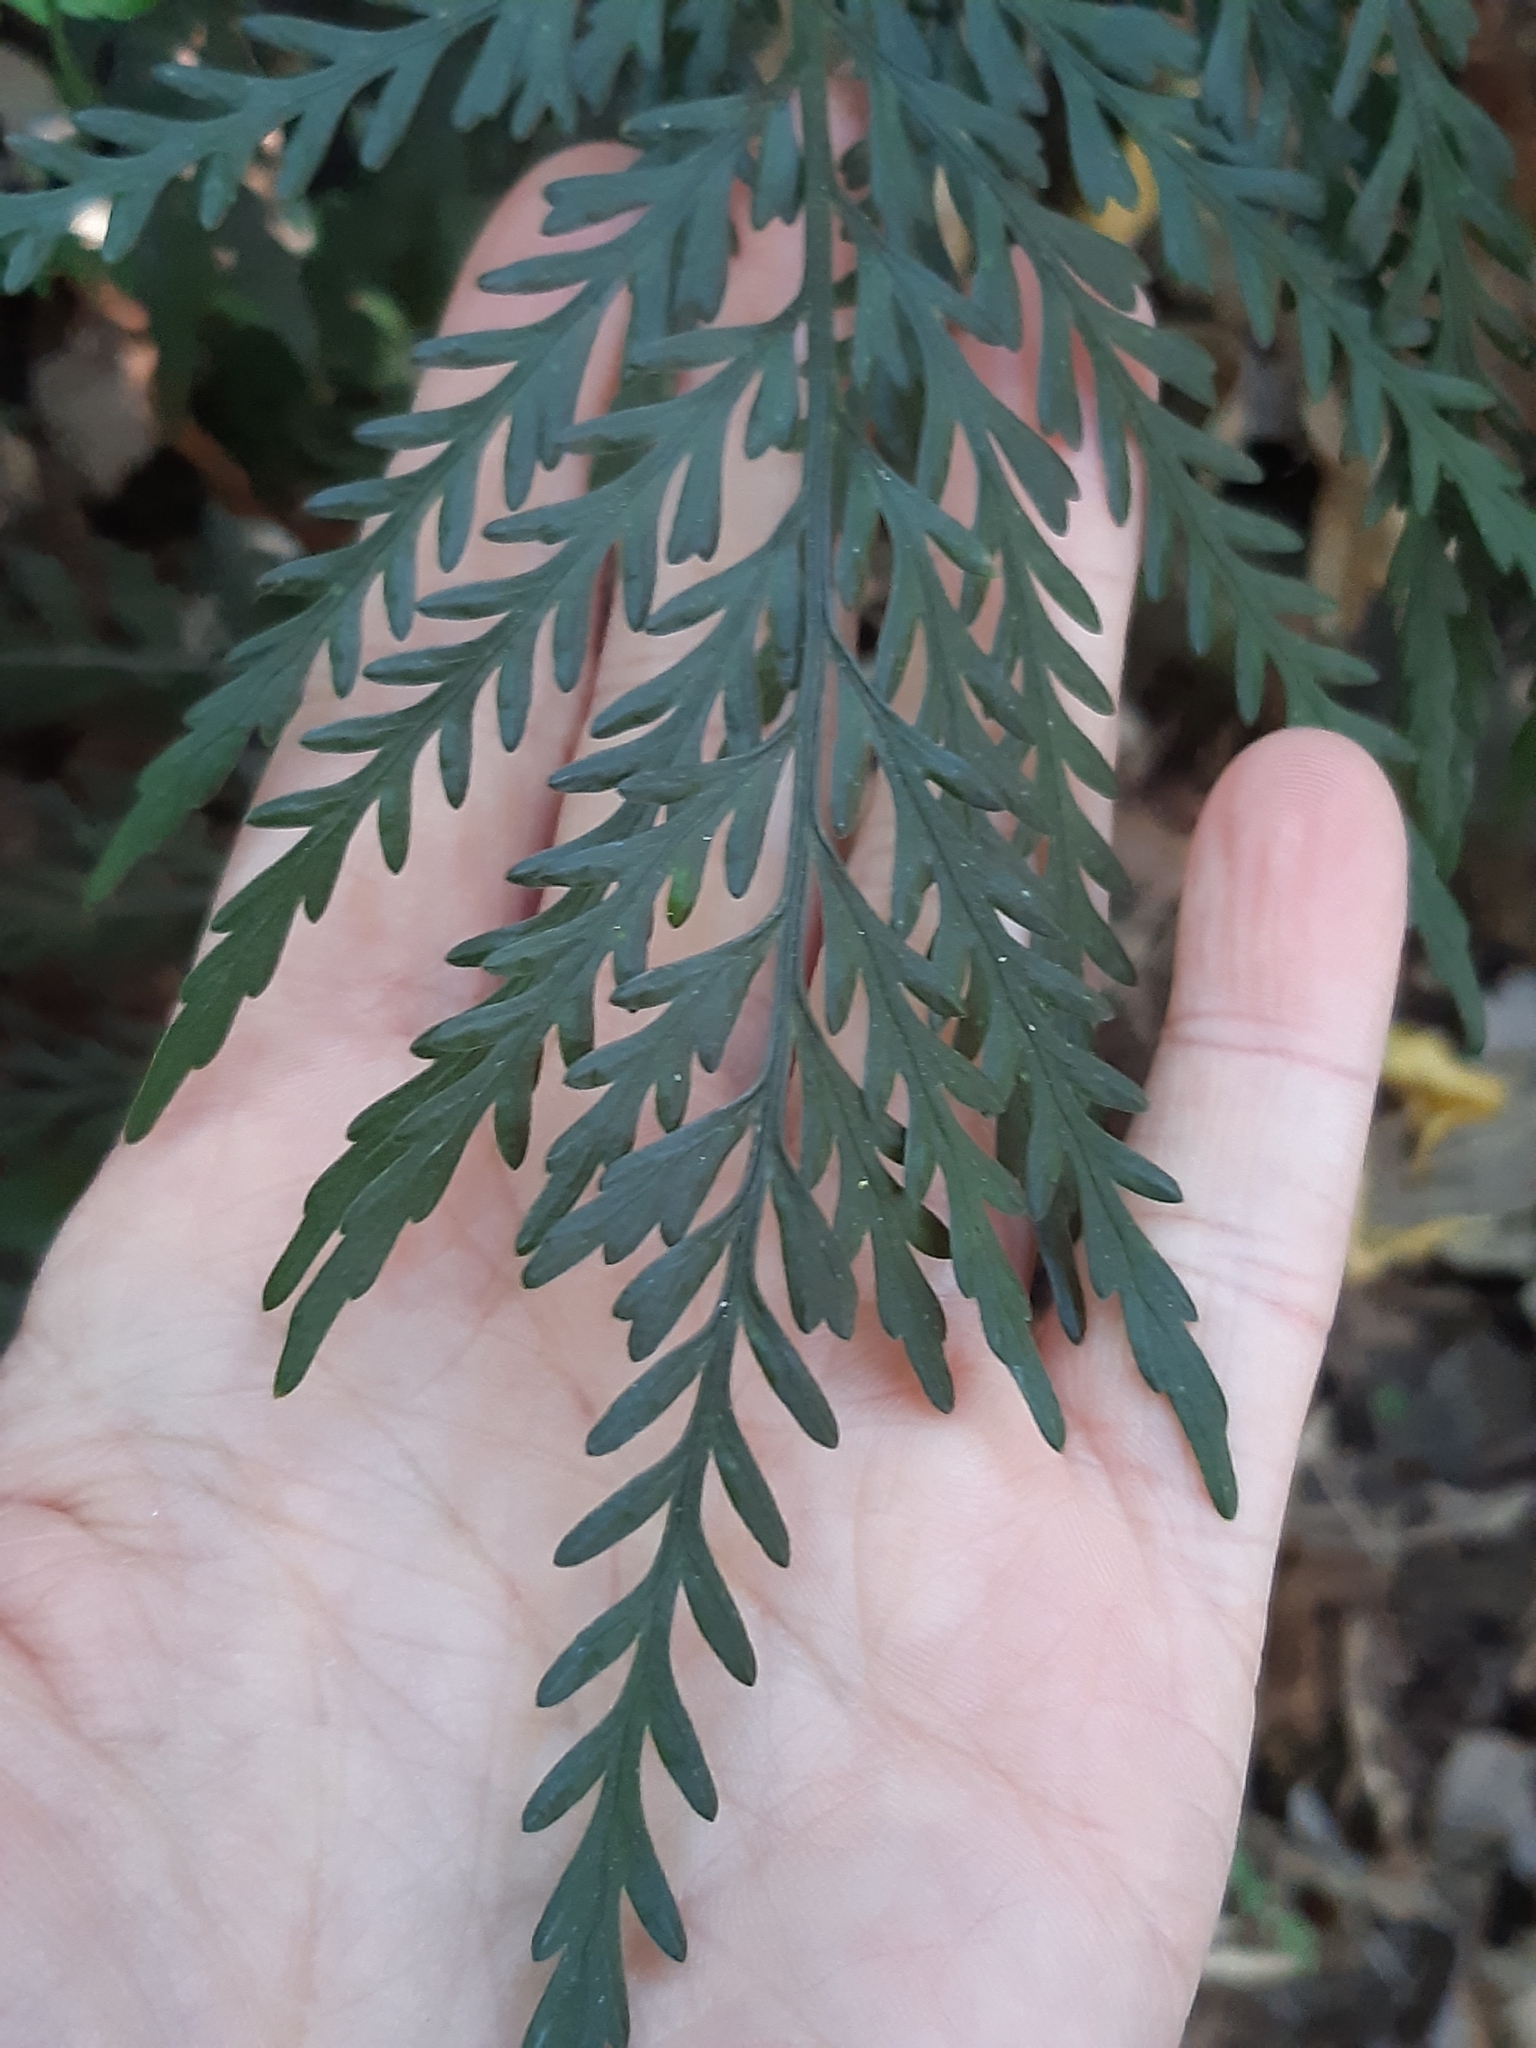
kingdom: Plantae
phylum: Tracheophyta
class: Polypodiopsida
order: Polypodiales
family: Aspleniaceae
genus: Asplenium
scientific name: Asplenium flaccidum
